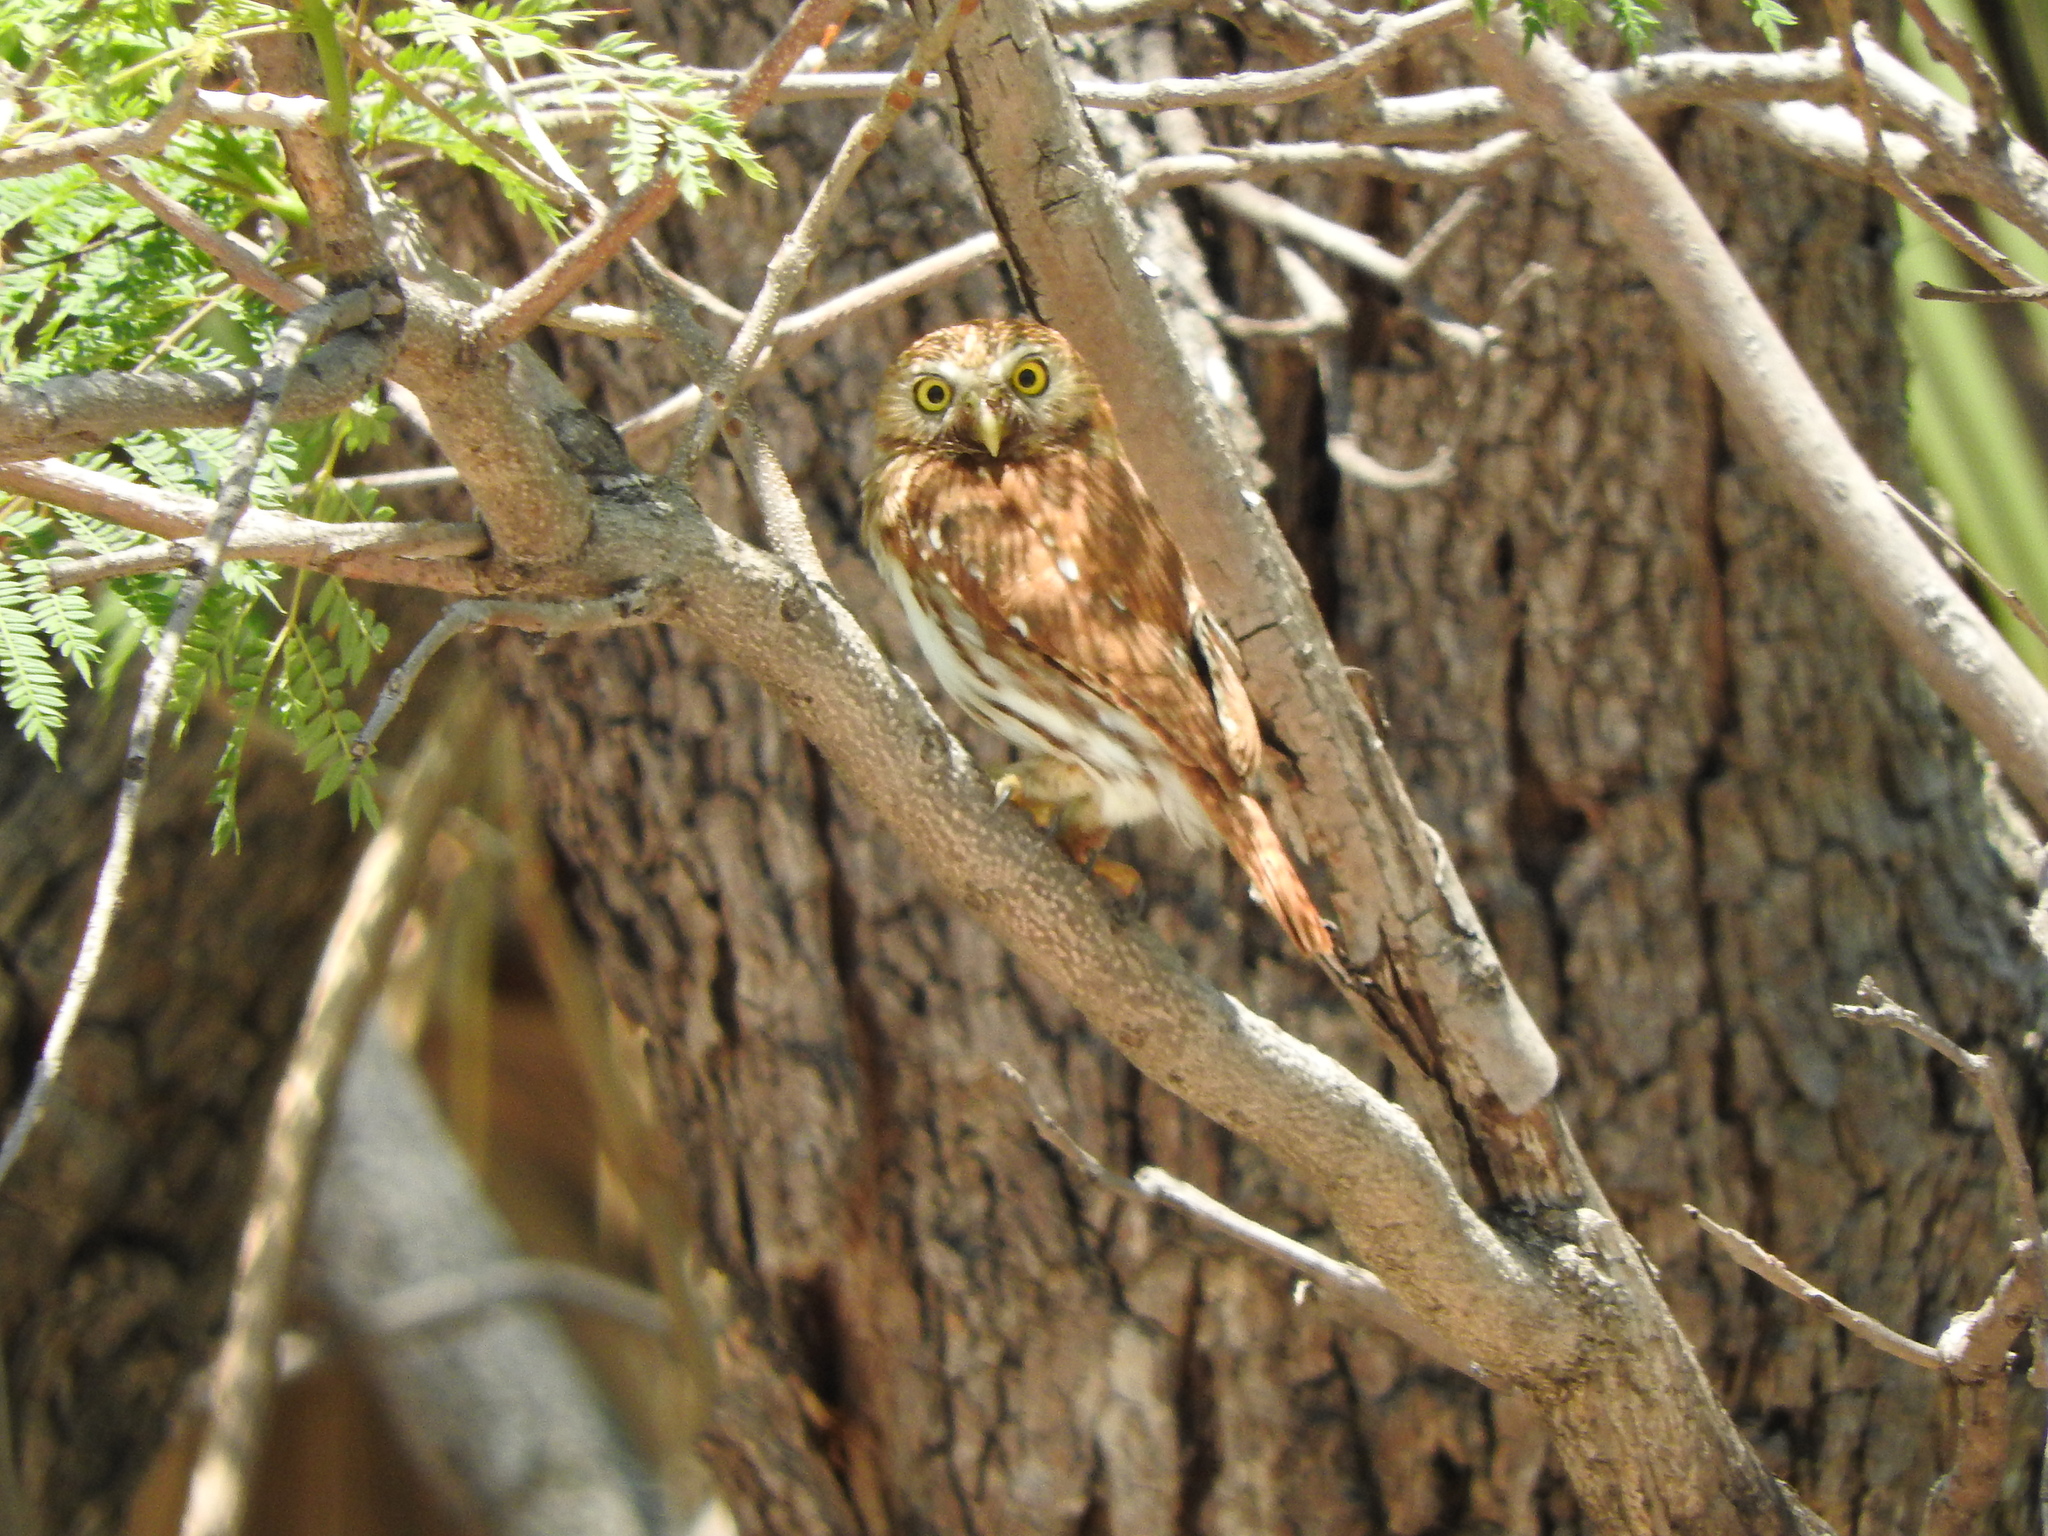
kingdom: Animalia
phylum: Chordata
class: Aves
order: Strigiformes
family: Strigidae
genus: Glaucidium
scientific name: Glaucidium brasilianum
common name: Ferruginous pygmy-owl
